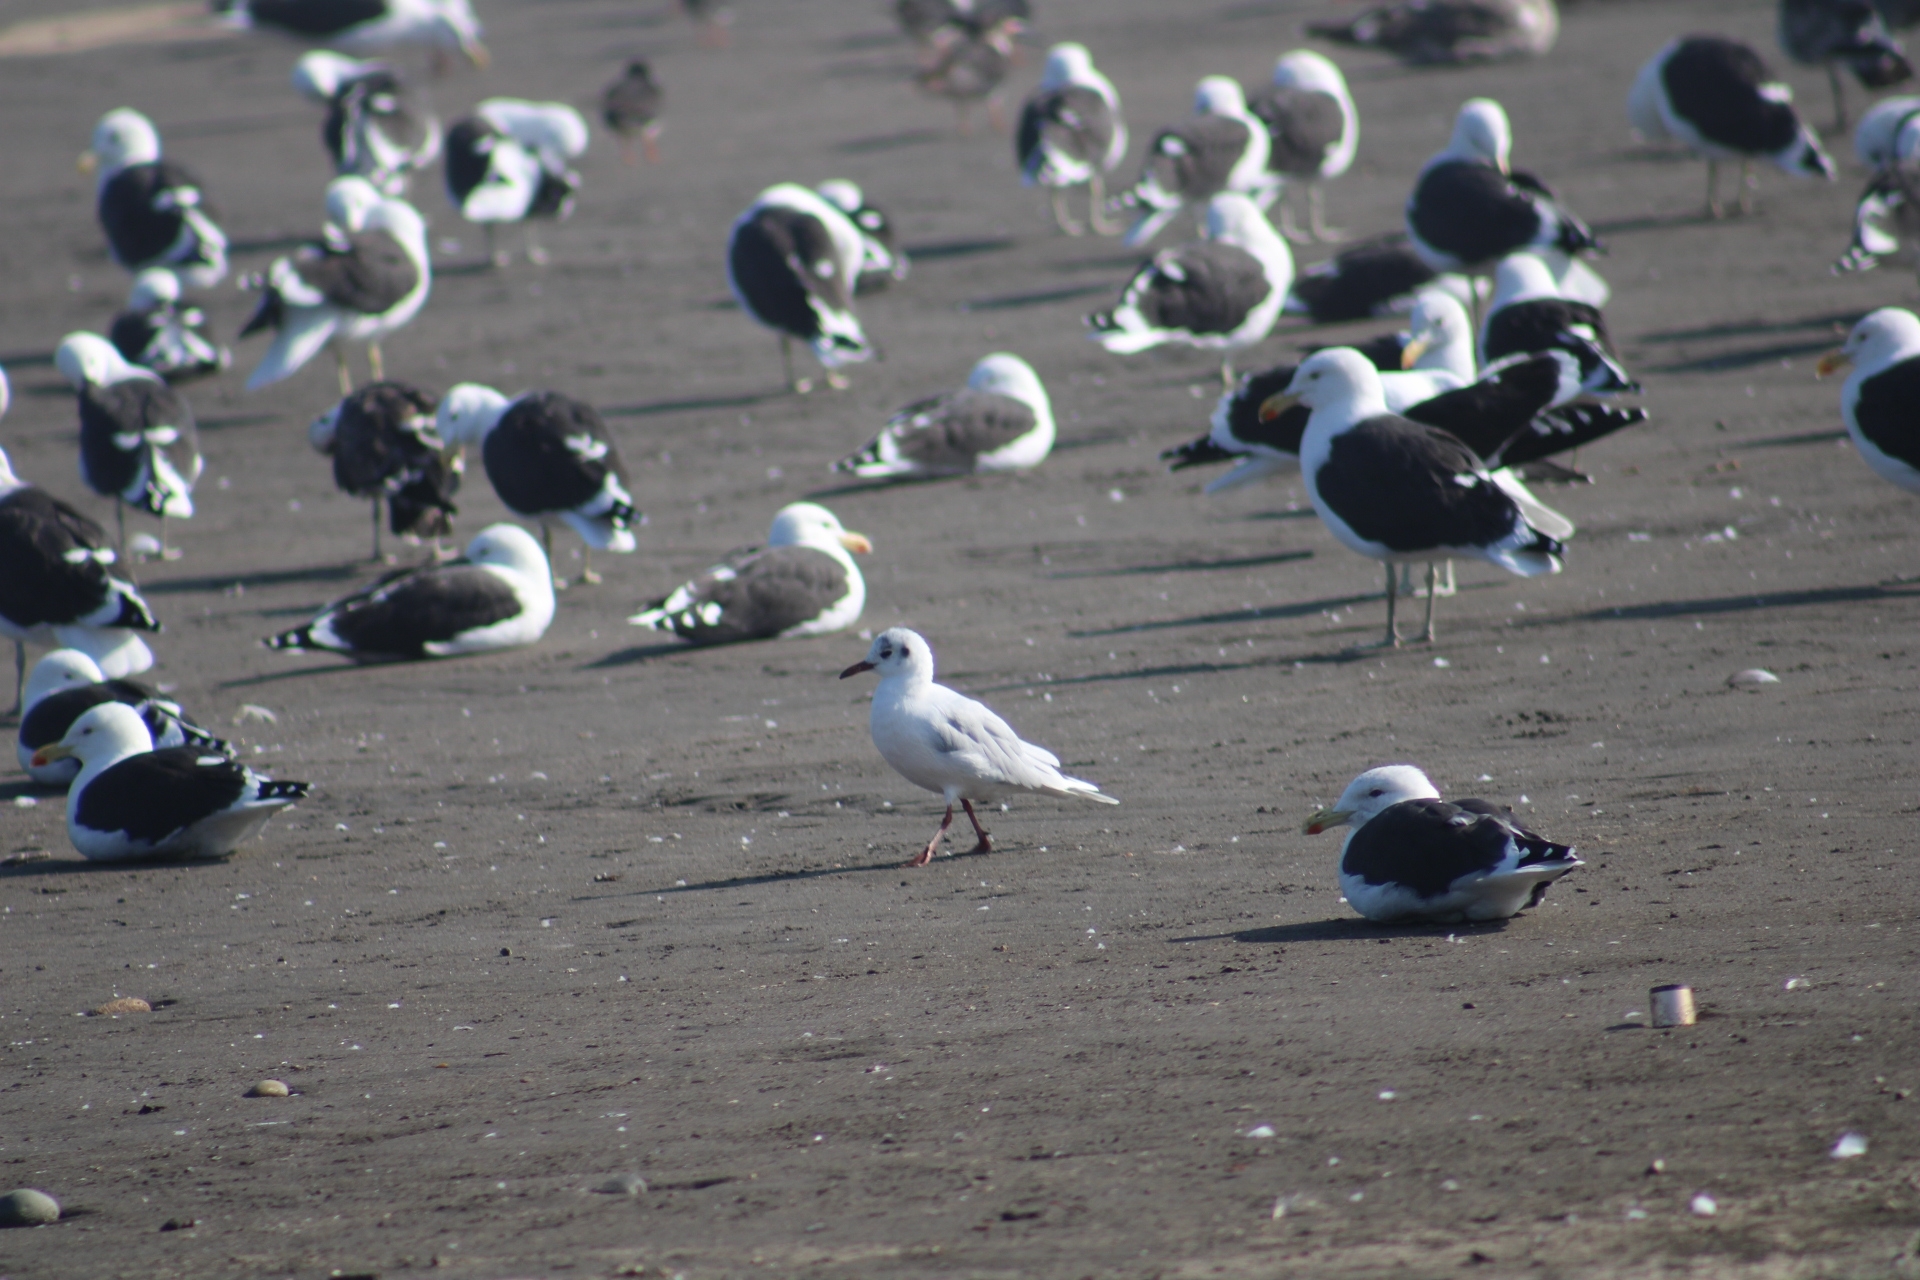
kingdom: Animalia
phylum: Chordata
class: Aves
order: Charadriiformes
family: Laridae
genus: Chroicocephalus
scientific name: Chroicocephalus maculipennis
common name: Brown-hooded gull
